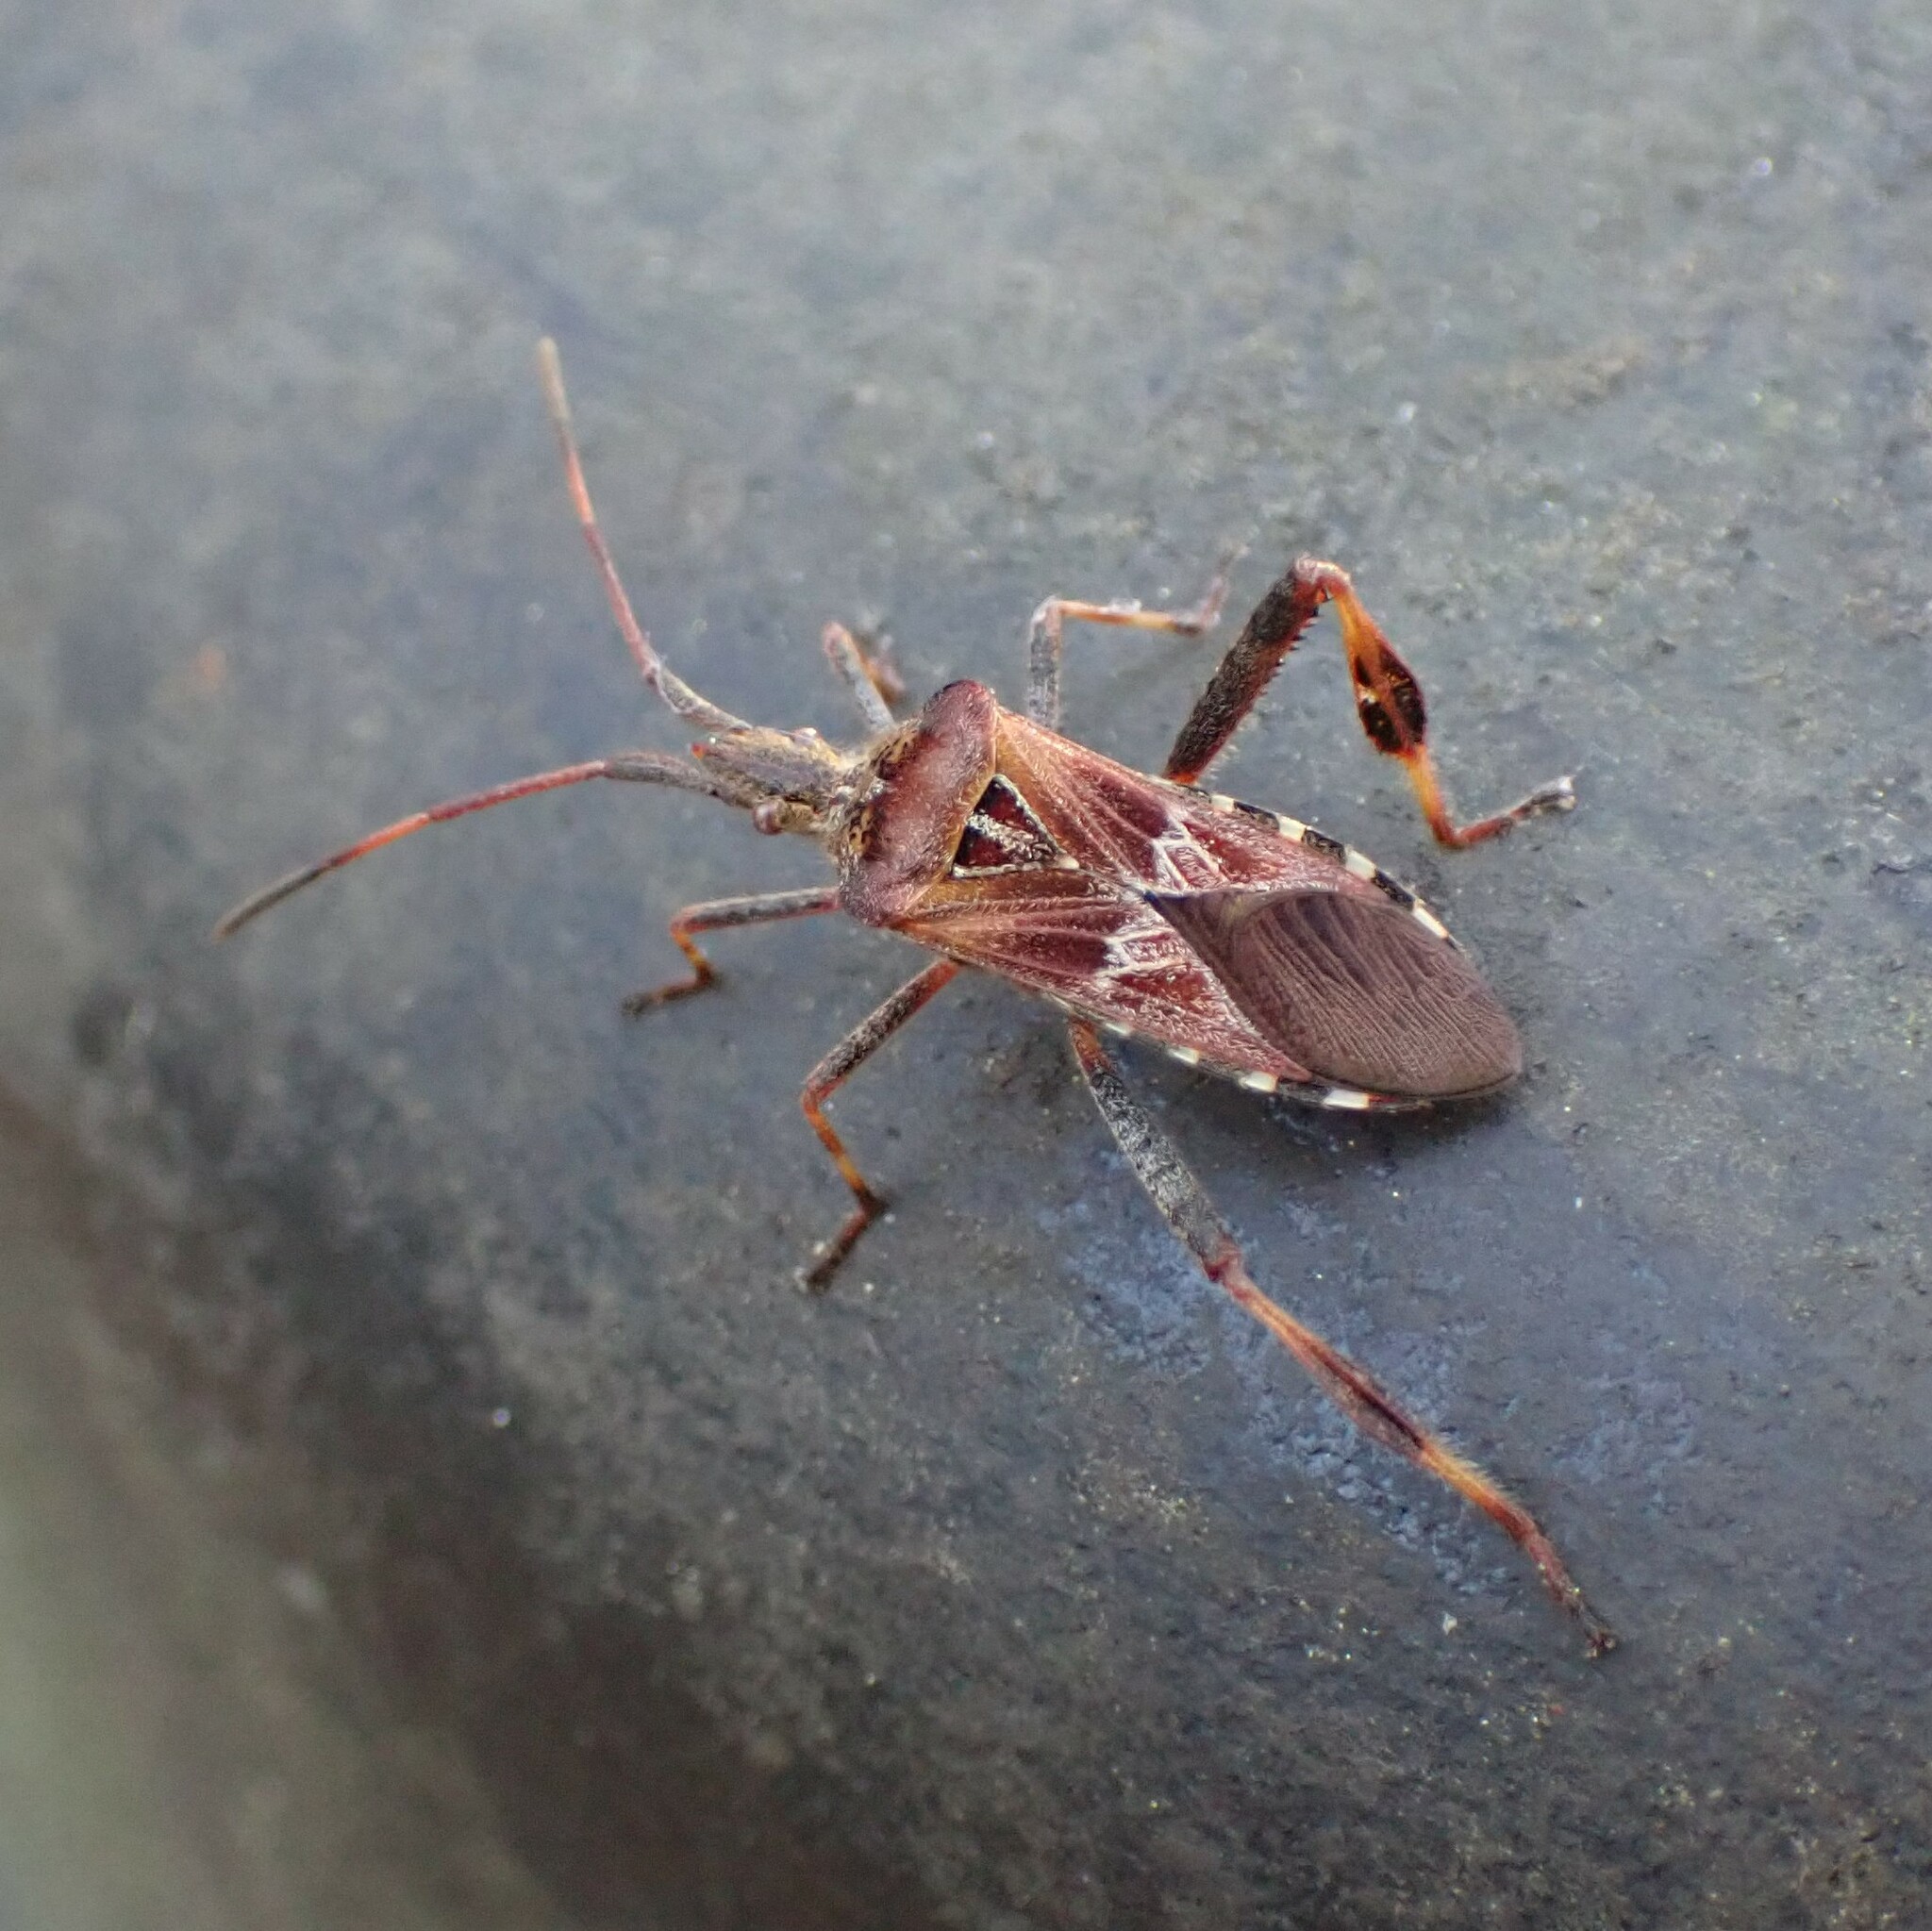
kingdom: Animalia
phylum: Arthropoda
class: Insecta
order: Hemiptera
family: Coreidae
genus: Leptoglossus
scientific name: Leptoglossus occidentalis
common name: Western conifer-seed bug
